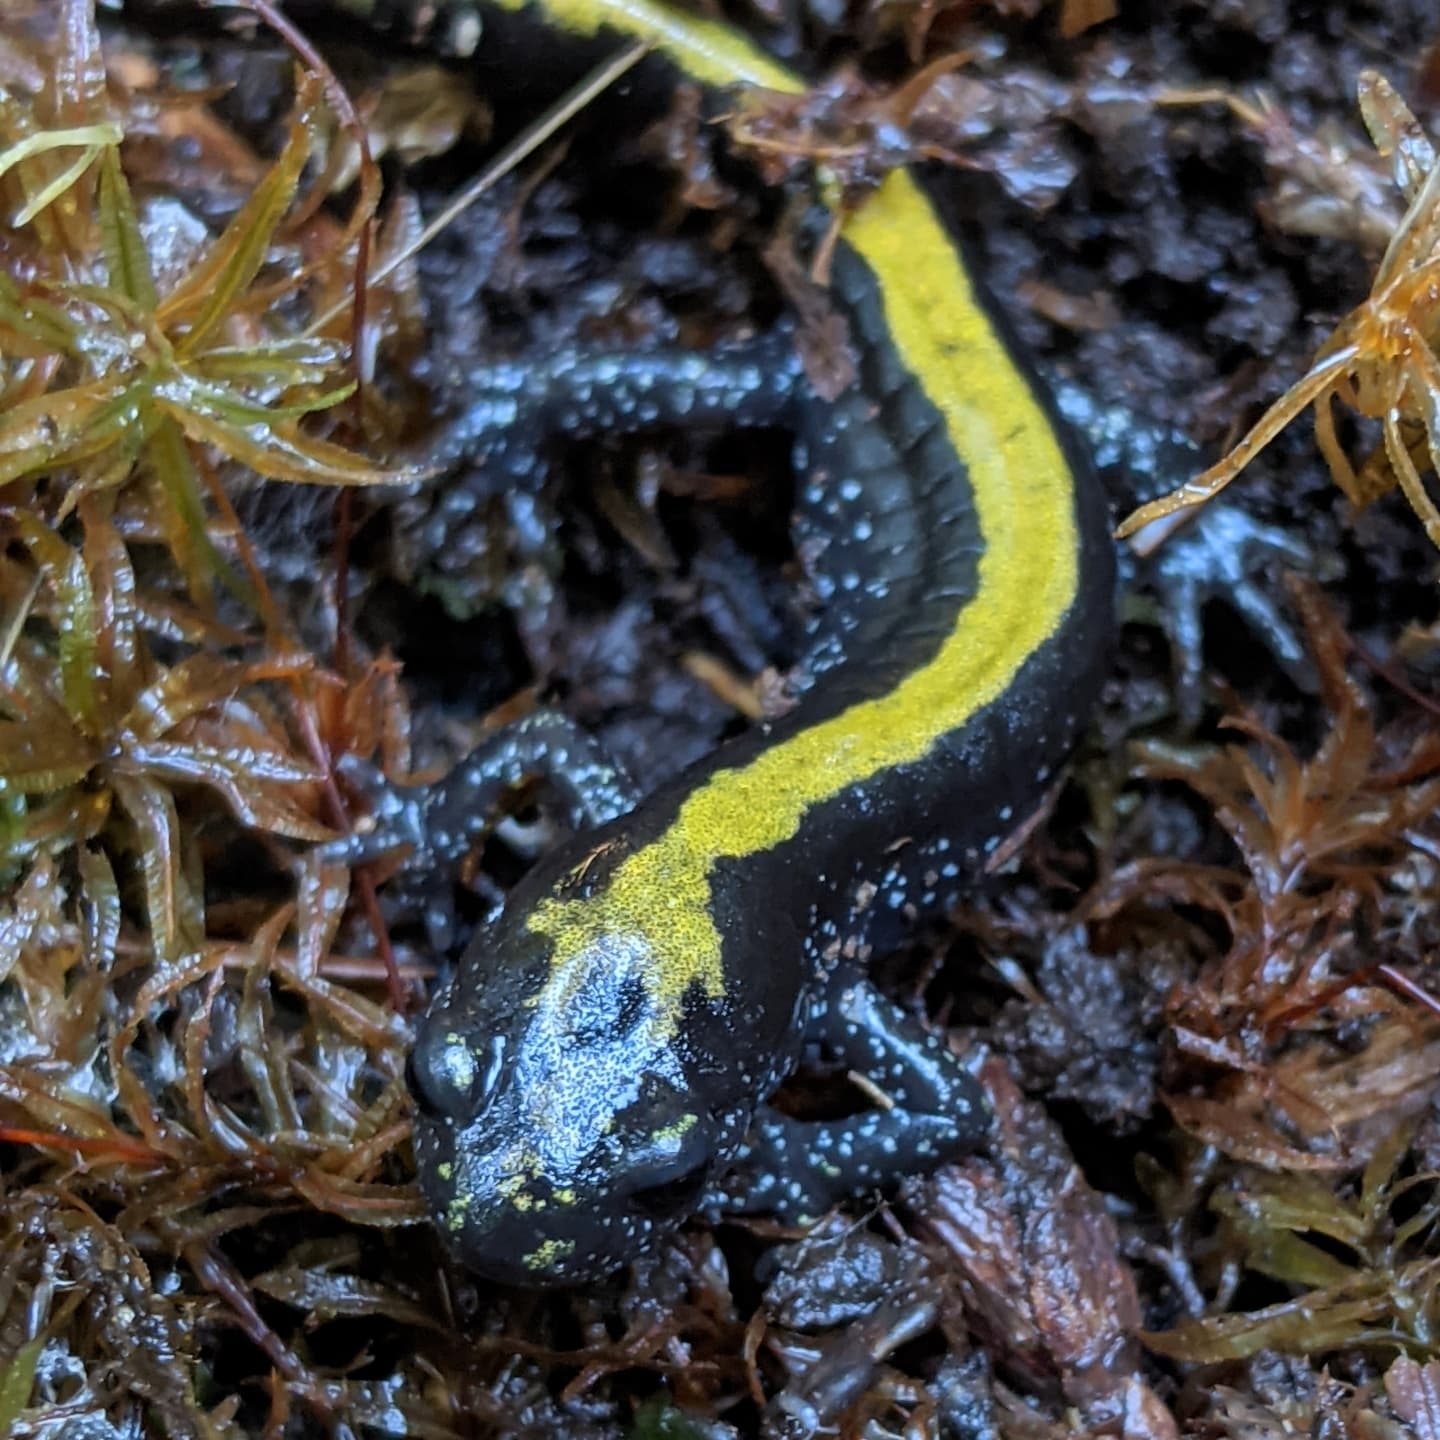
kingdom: Animalia
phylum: Chordata
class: Amphibia
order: Caudata
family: Ambystomatidae
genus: Ambystoma
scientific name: Ambystoma macrodactylum
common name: Long-toed salamander
